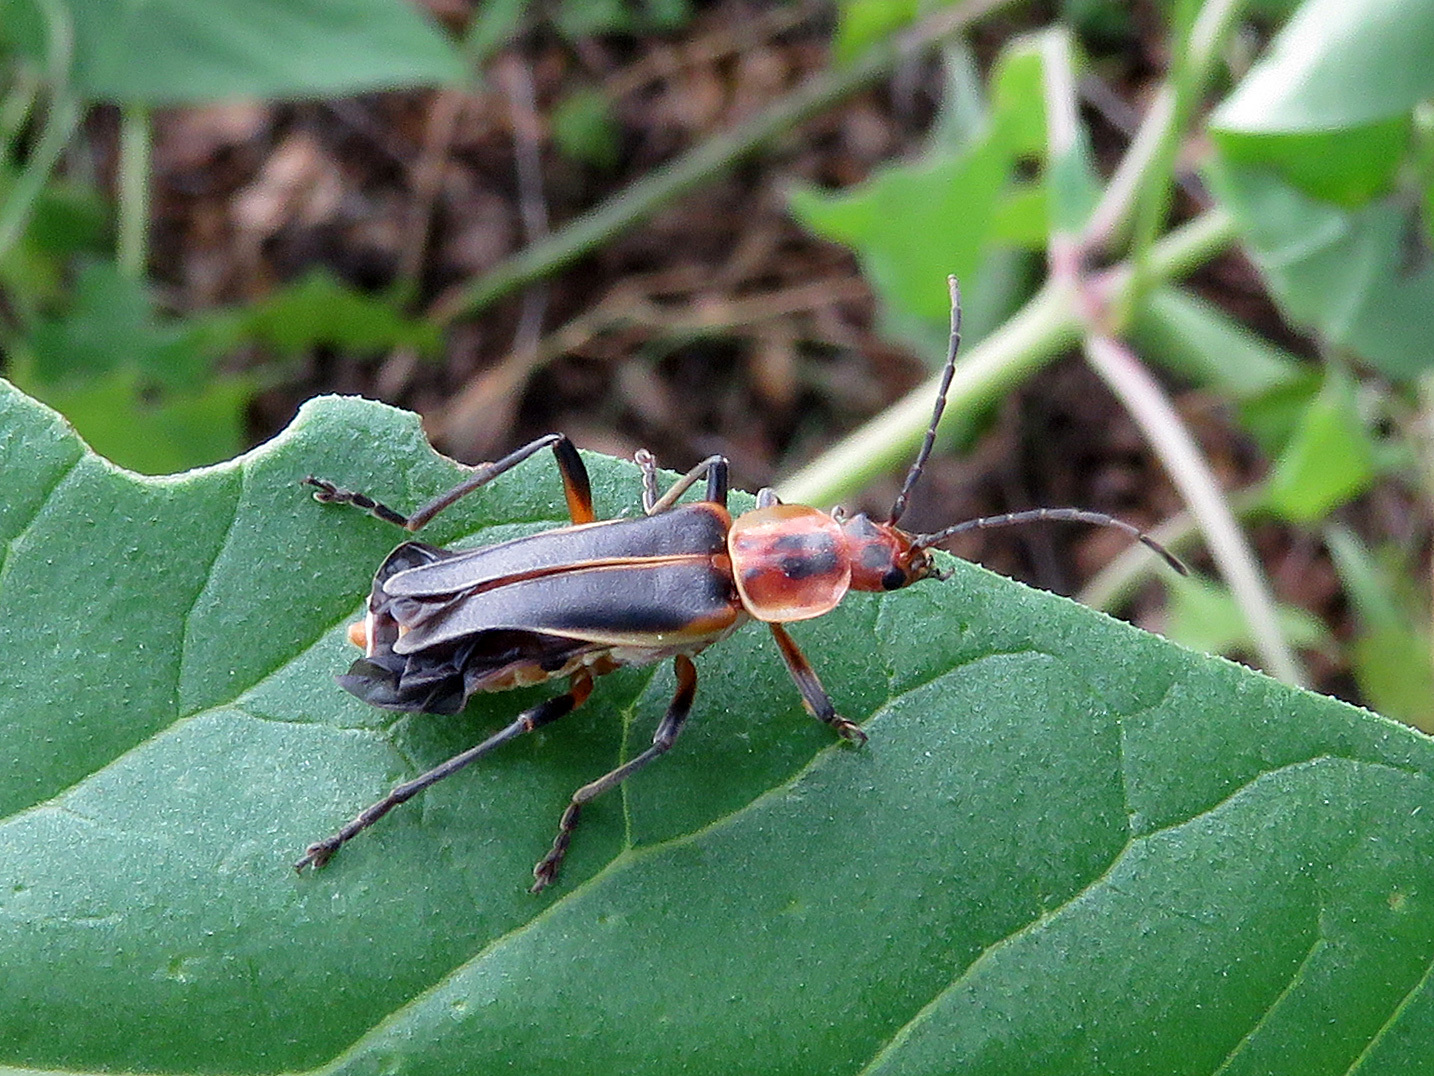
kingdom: Animalia
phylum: Arthropoda
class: Insecta
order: Coleoptera
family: Cantharidae
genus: Chauliognathus
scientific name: Chauliognathus obscurus
